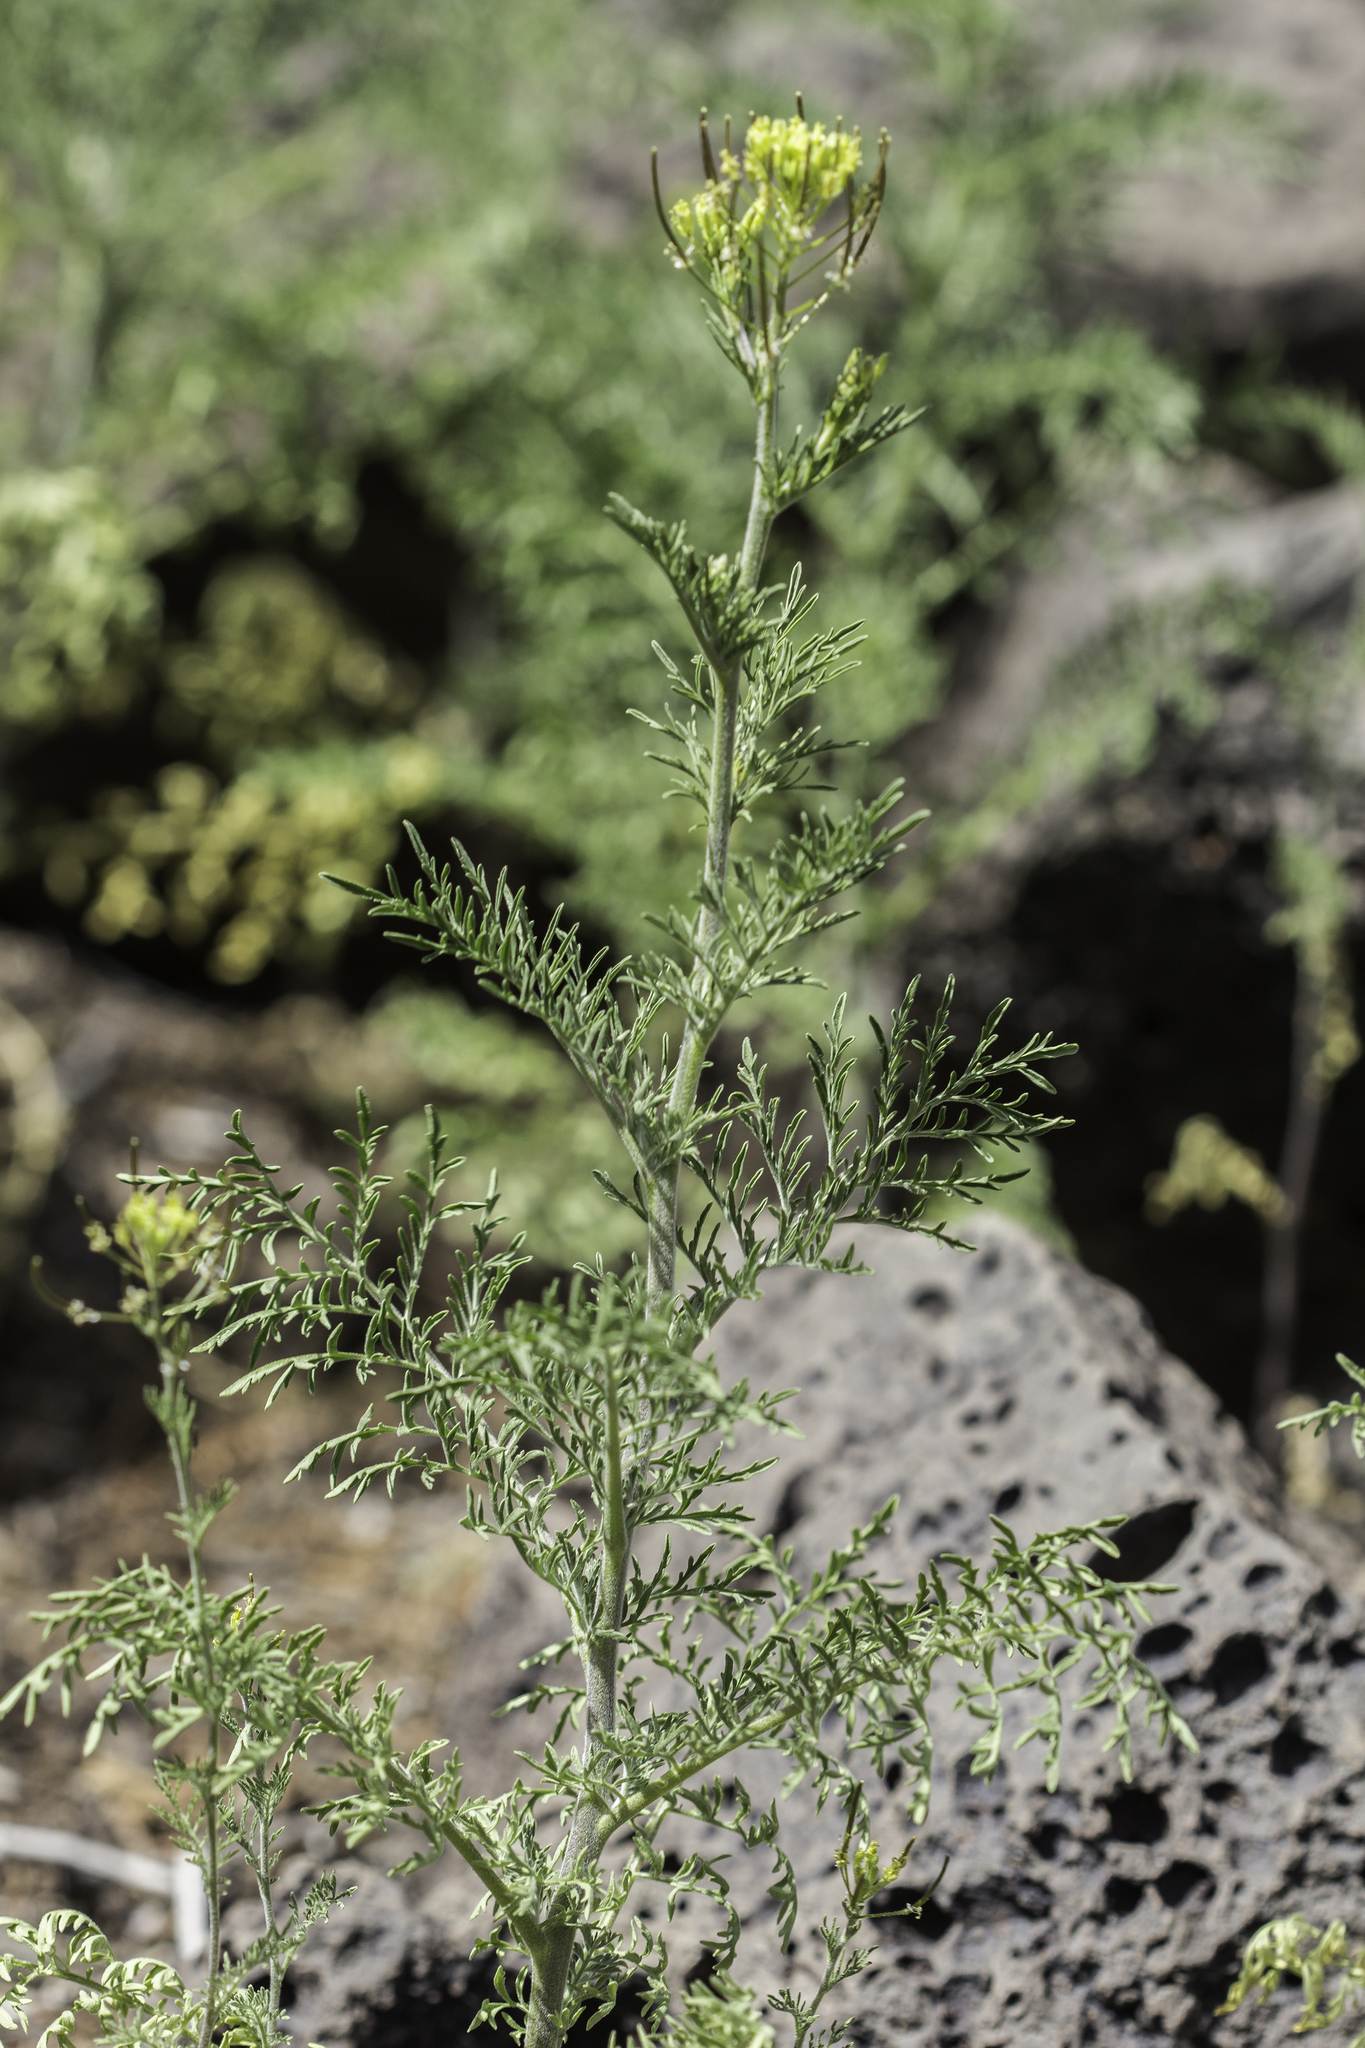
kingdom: Plantae
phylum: Tracheophyta
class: Magnoliopsida
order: Brassicales
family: Brassicaceae
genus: Descurainia
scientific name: Descurainia sophia
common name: Flixweed
